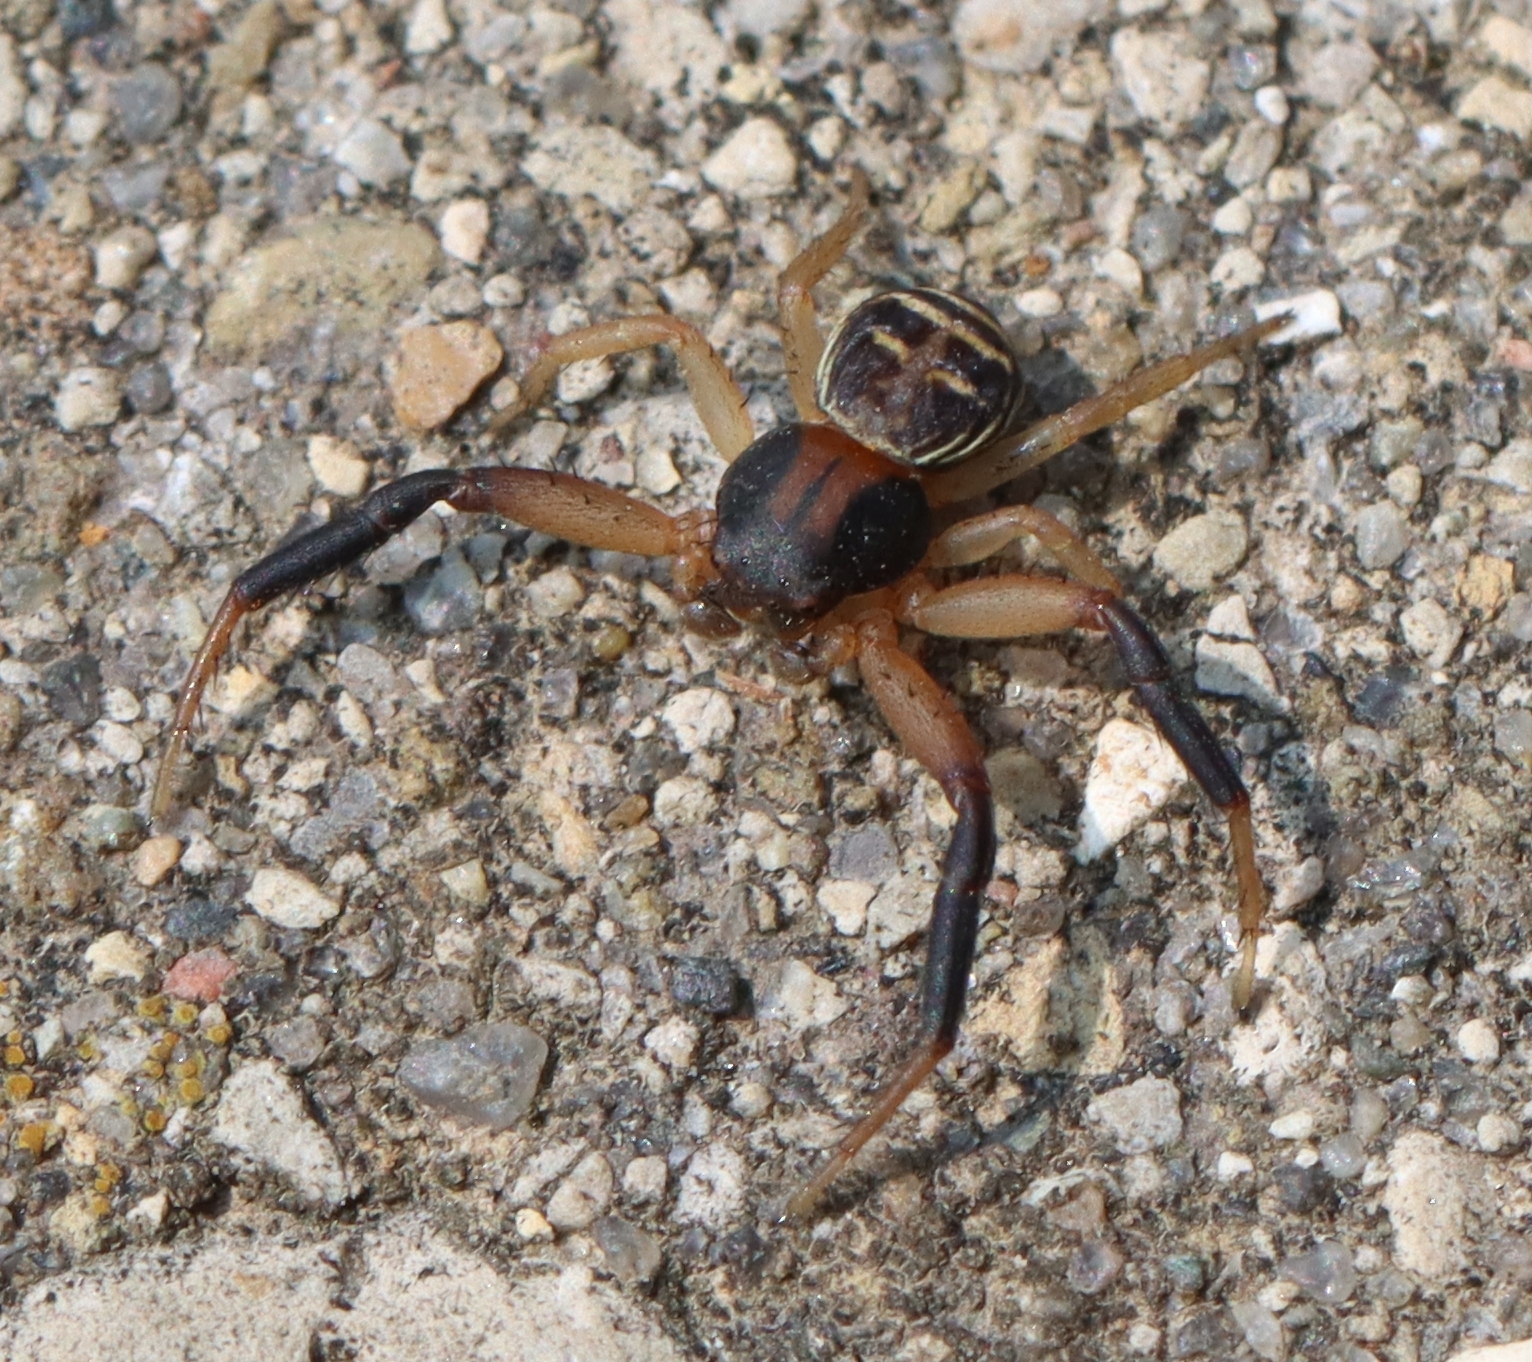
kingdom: Animalia
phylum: Arthropoda
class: Arachnida
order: Araneae
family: Thomisidae
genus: Xysticus
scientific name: Xysticus texanus
